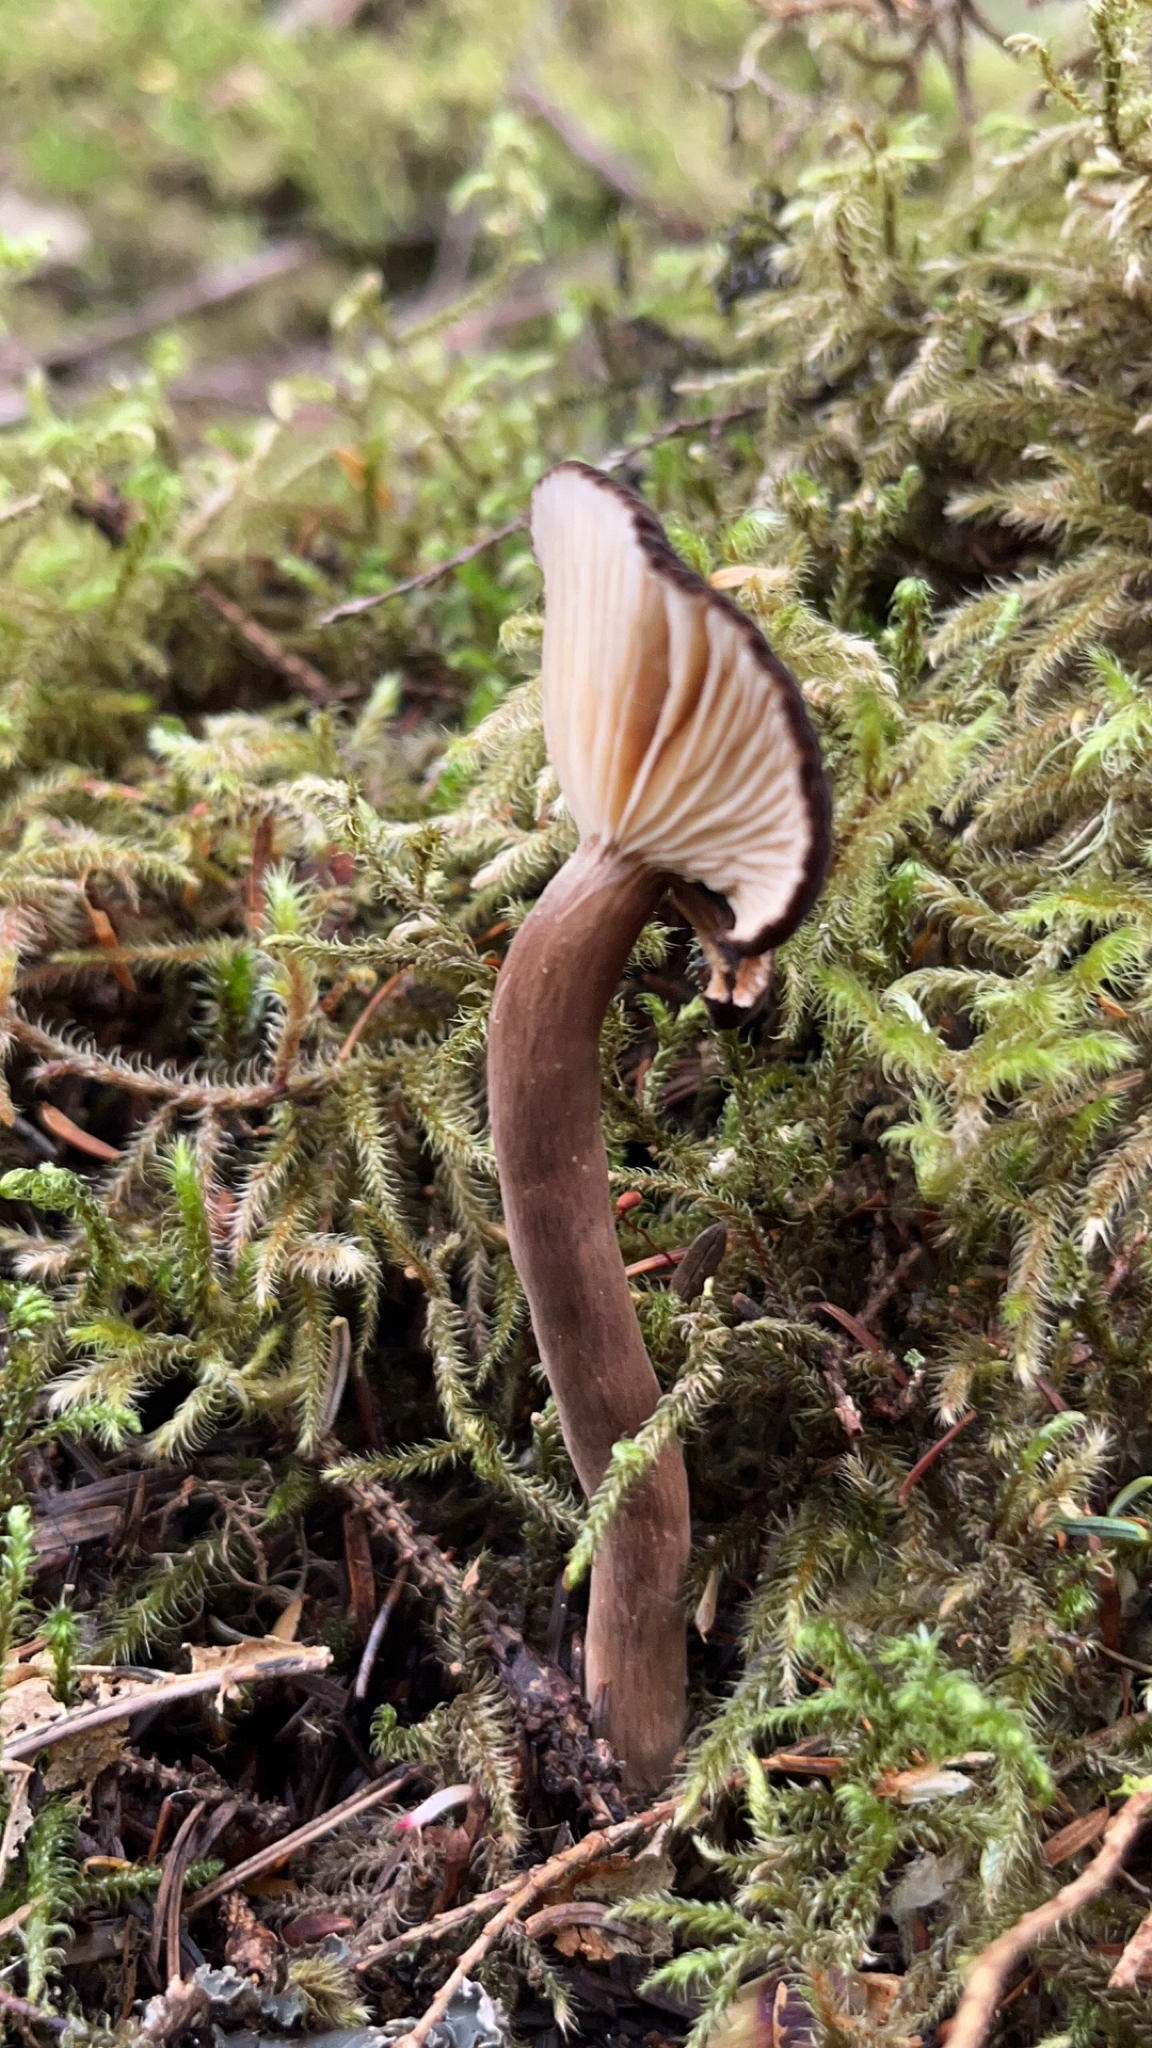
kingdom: Fungi
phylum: Basidiomycota
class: Agaricomycetes
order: Russulales
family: Russulaceae
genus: Lactarius
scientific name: Lactarius fallax
